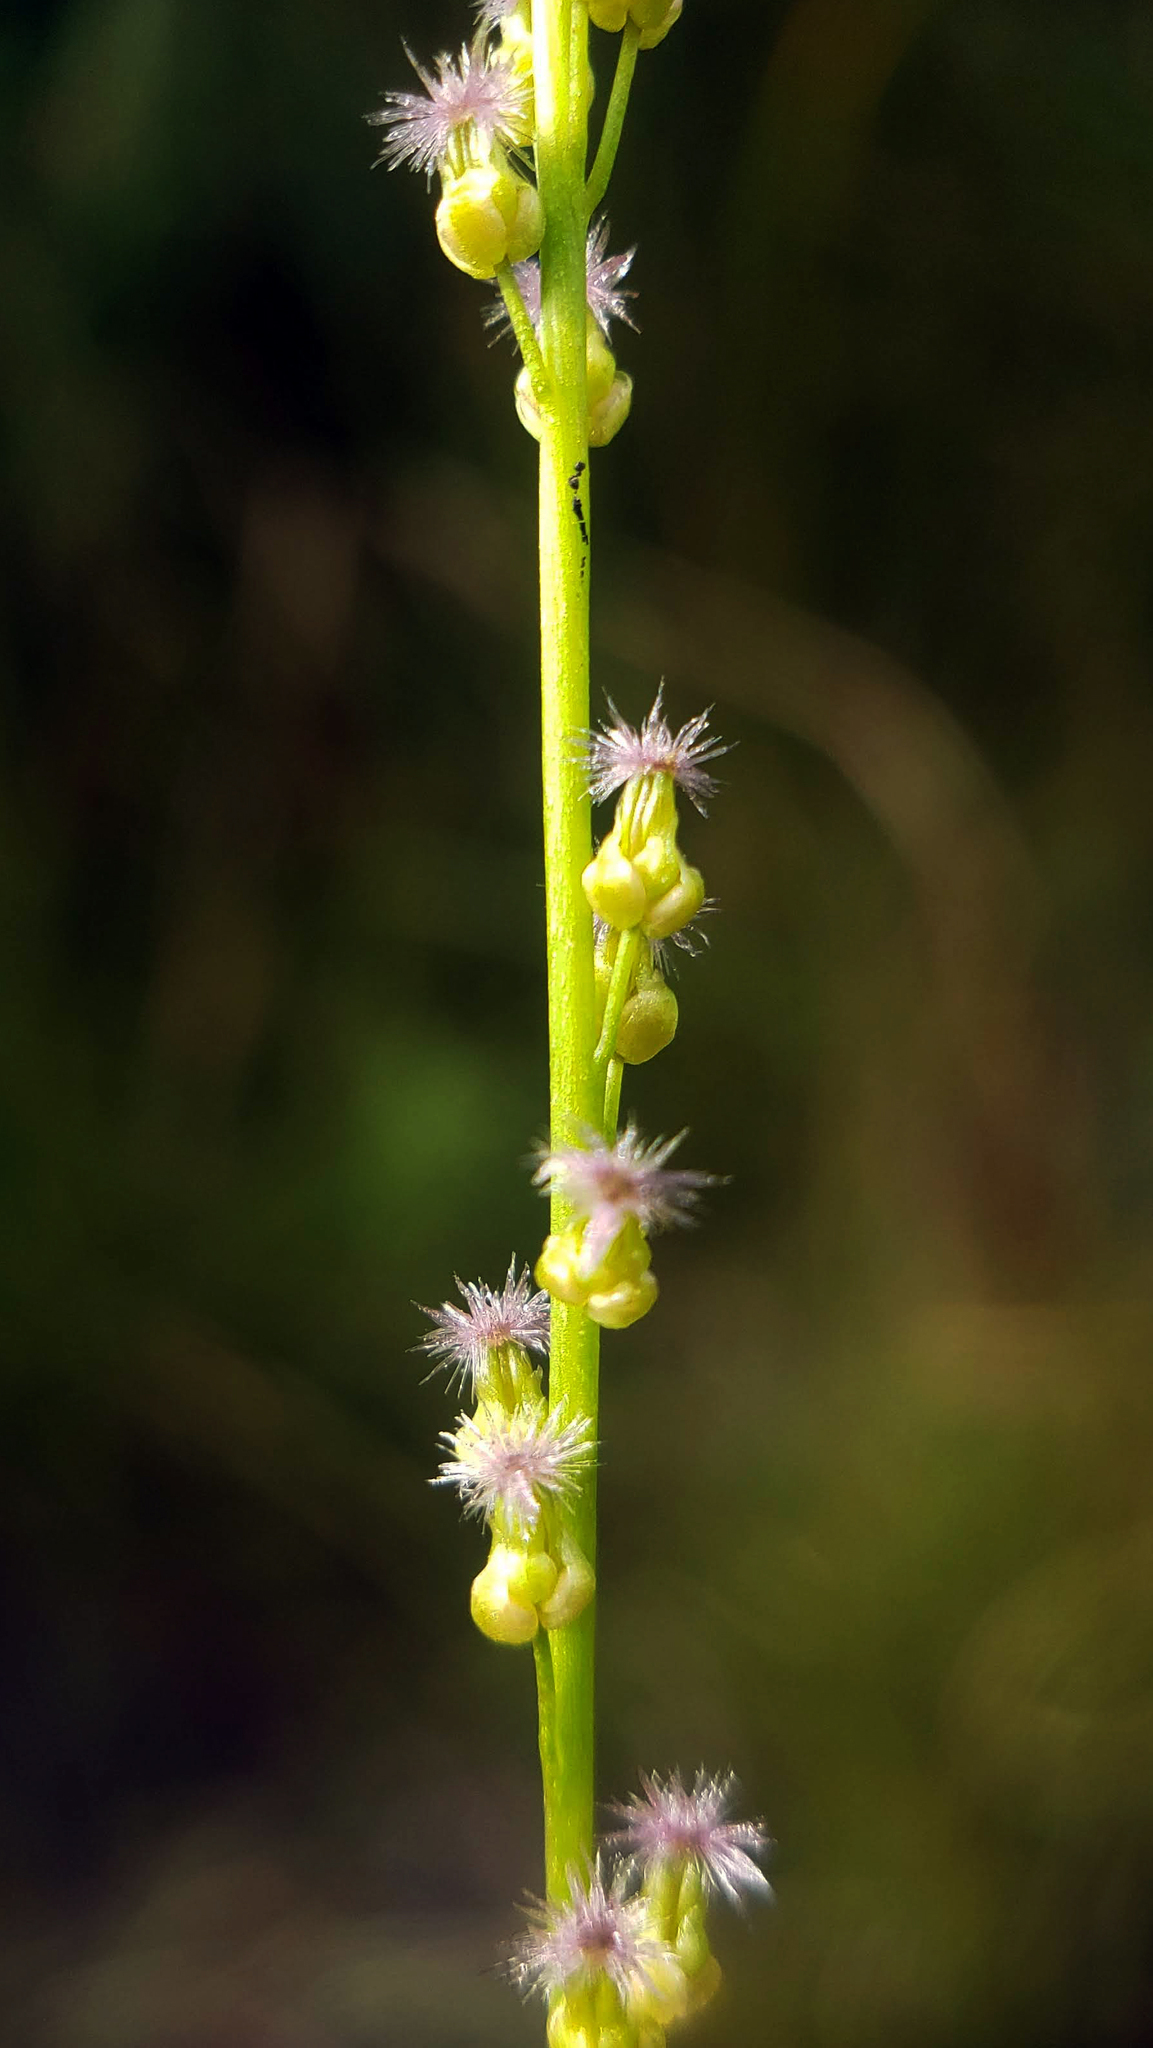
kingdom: Plantae
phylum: Tracheophyta
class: Liliopsida
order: Alismatales
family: Juncaginaceae
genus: Triglochin
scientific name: Triglochin palustris
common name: Marsh arrowgrass
